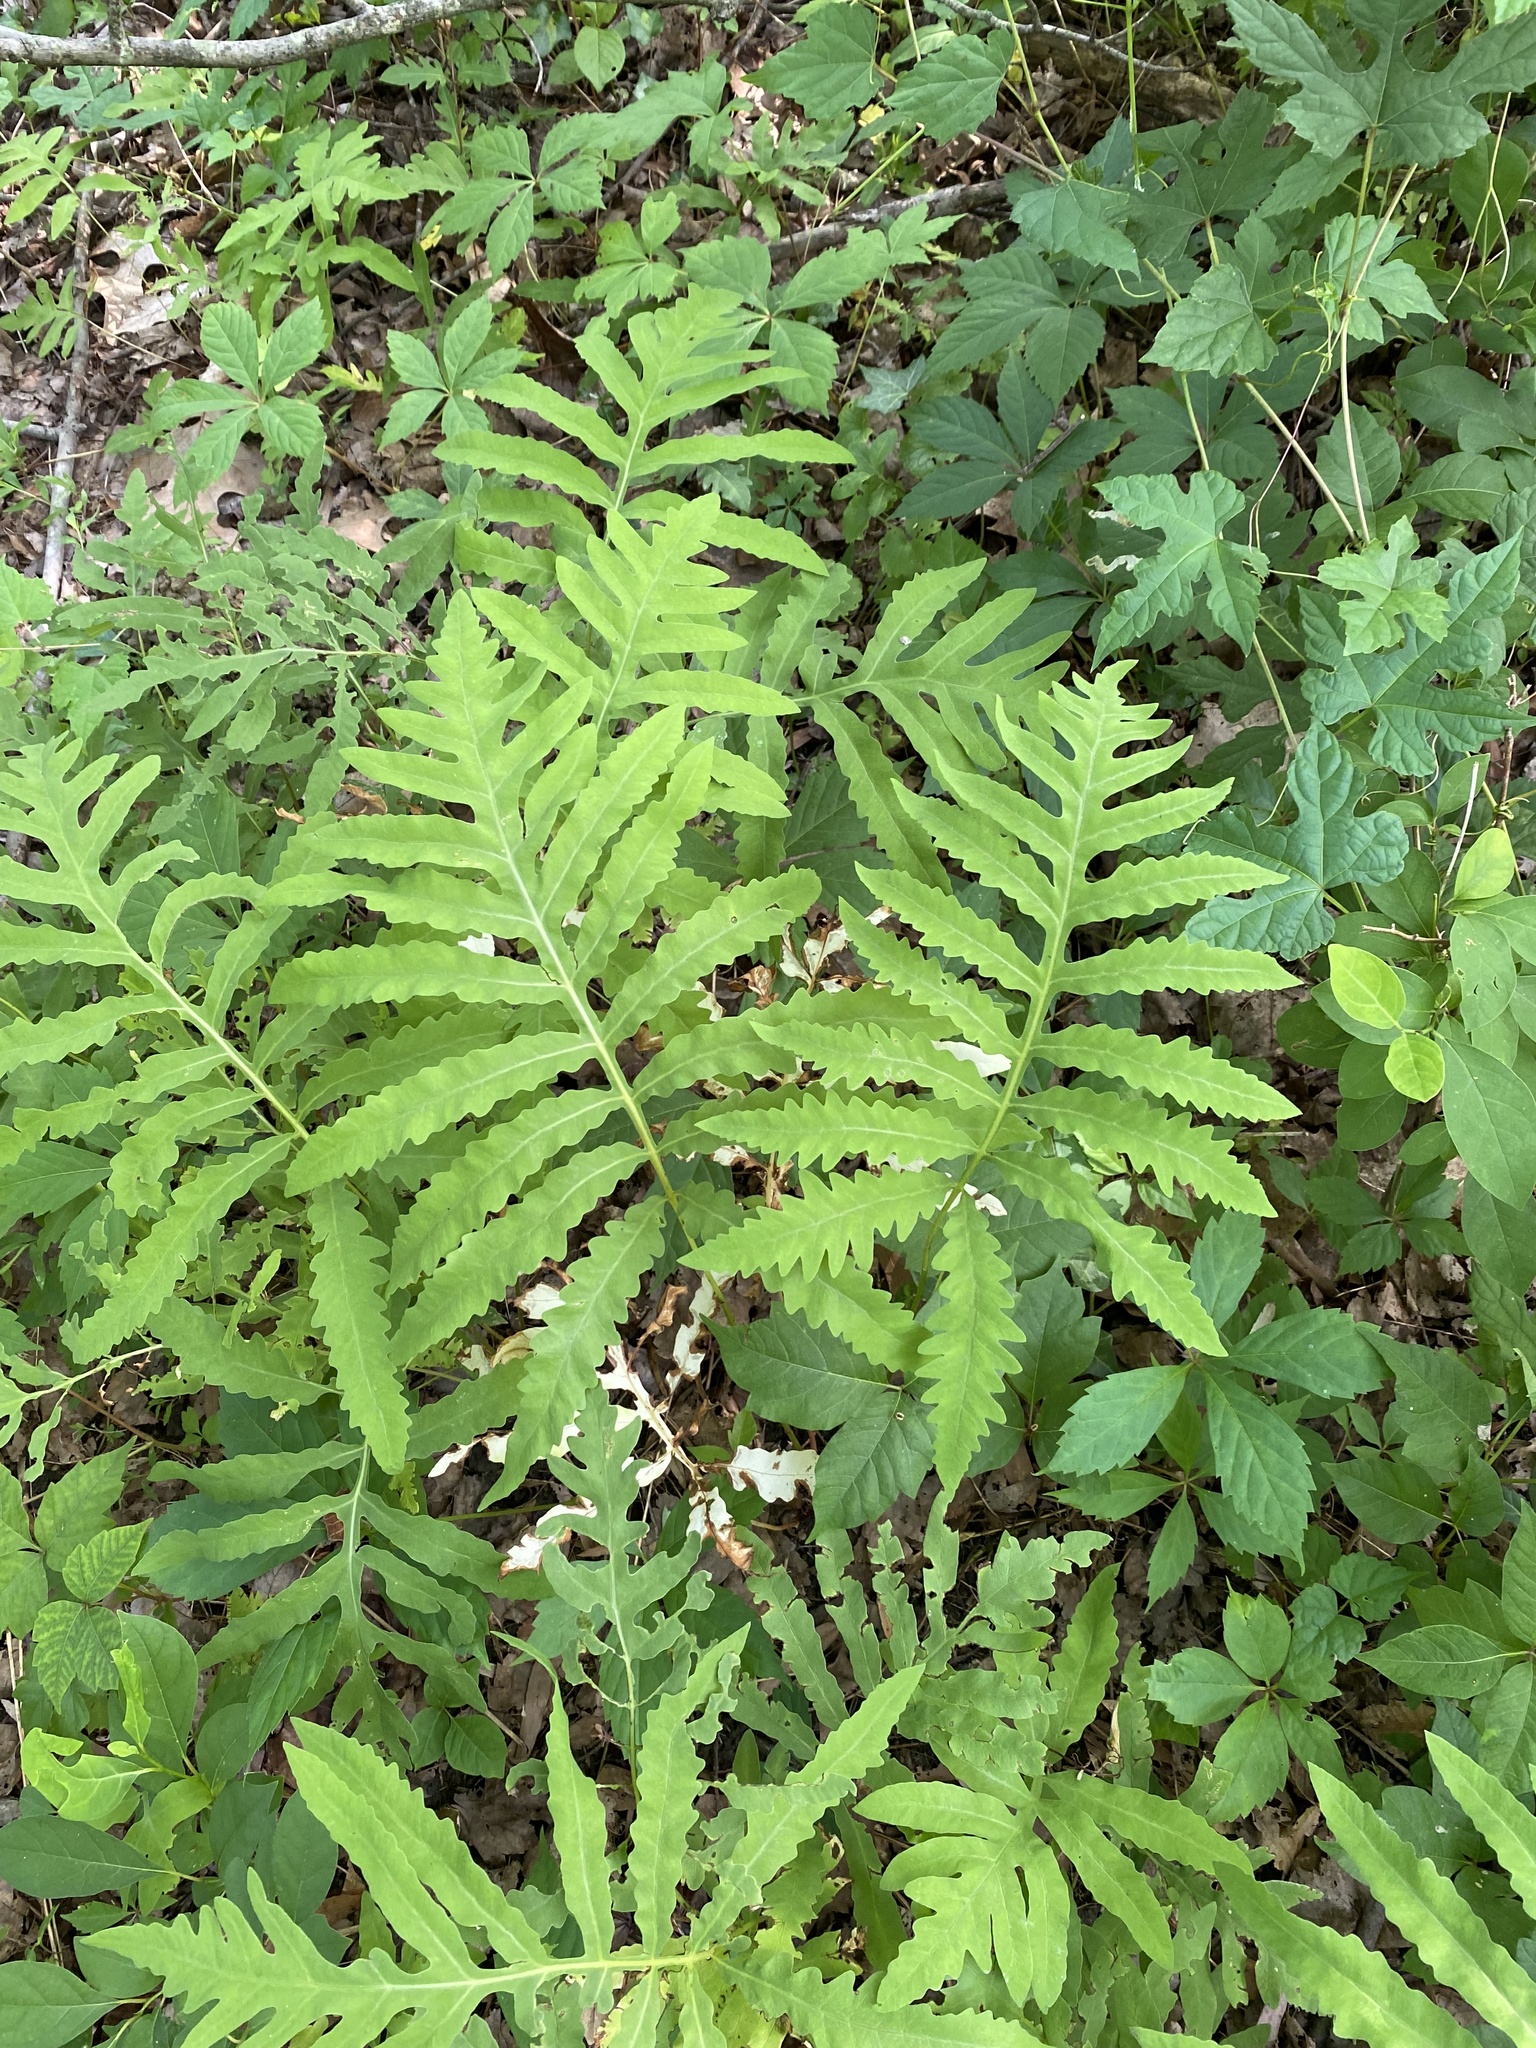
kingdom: Plantae
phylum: Tracheophyta
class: Polypodiopsida
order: Polypodiales
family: Onocleaceae
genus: Onoclea
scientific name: Onoclea sensibilis
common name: Sensitive fern
